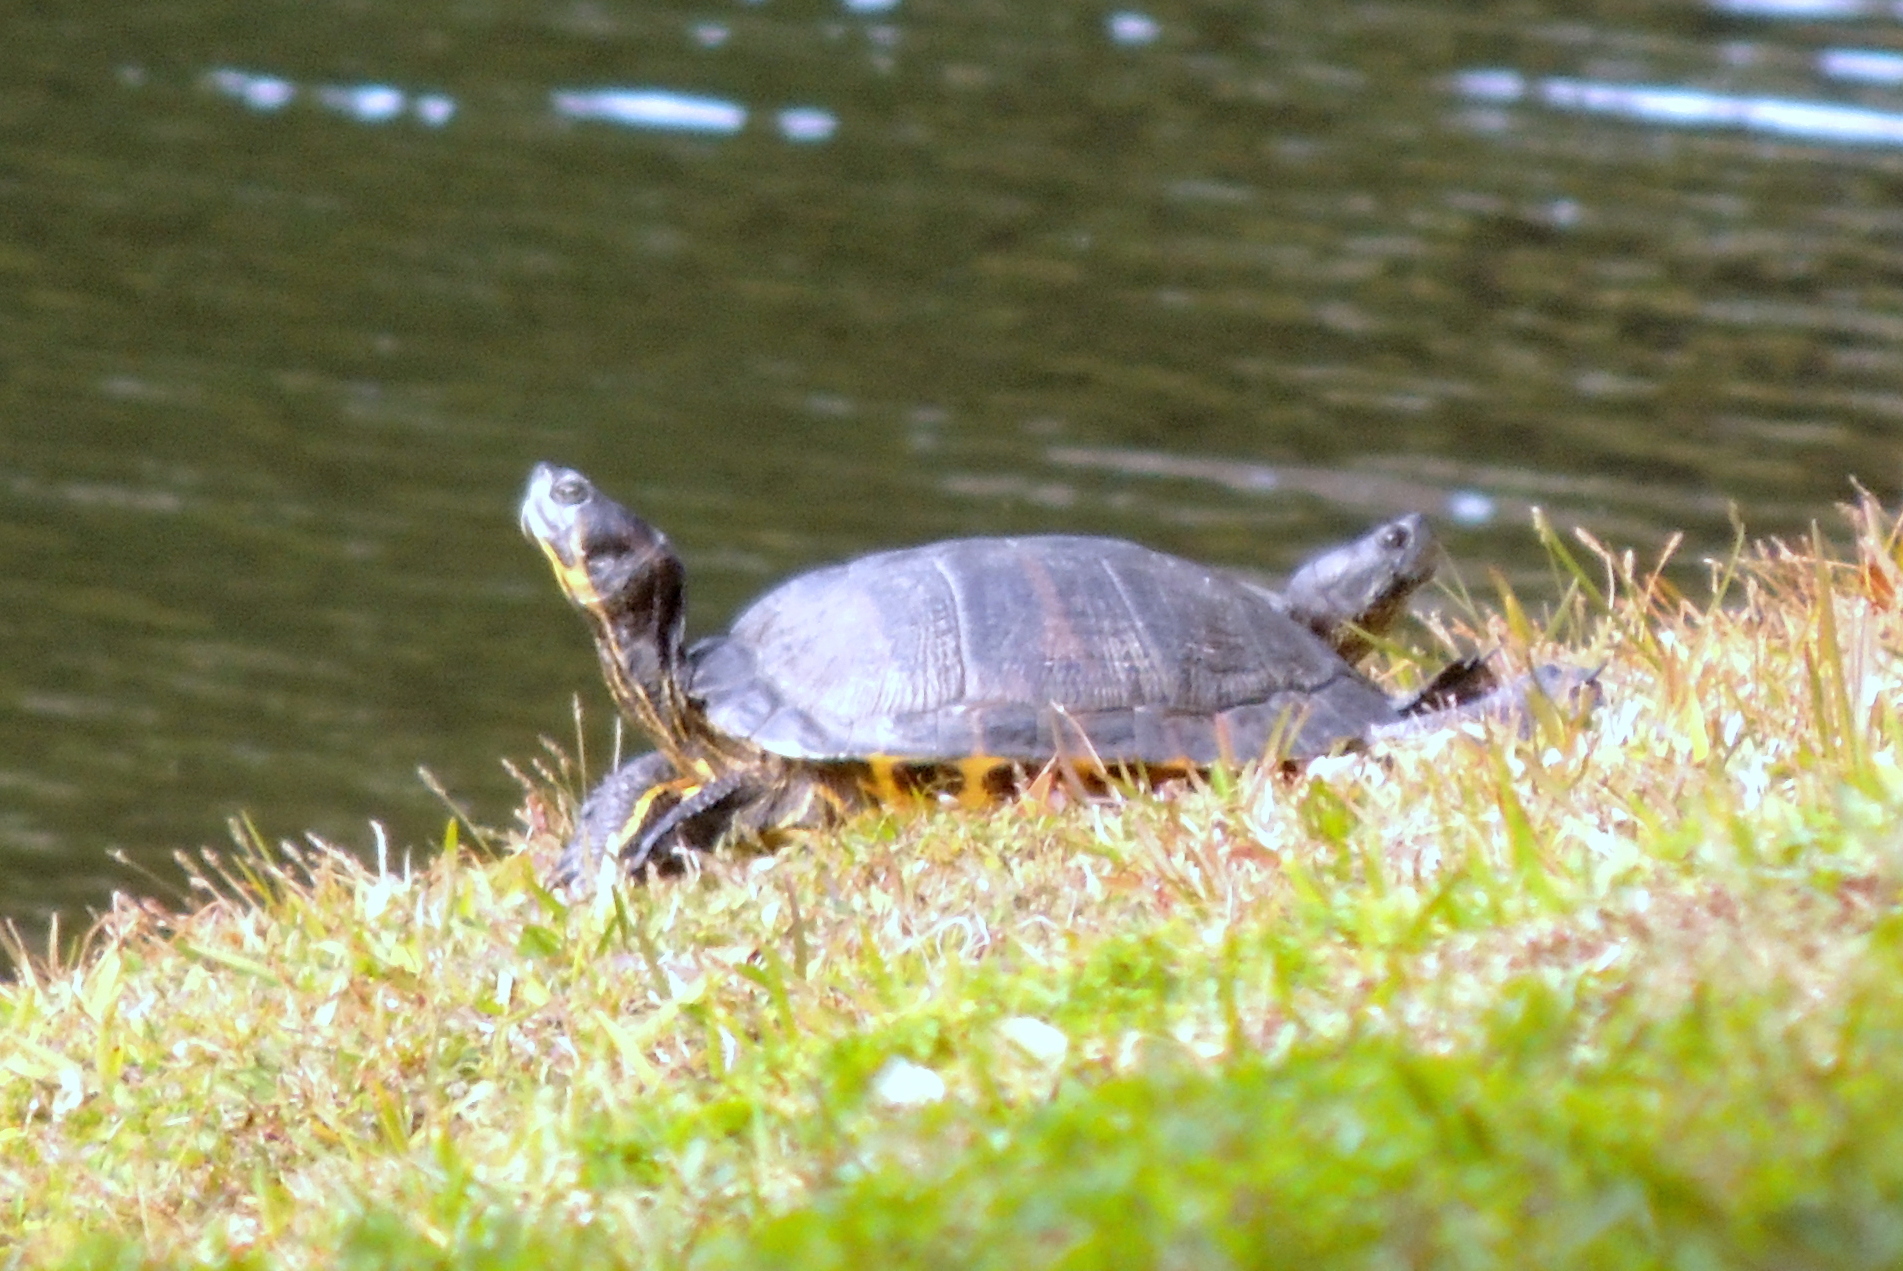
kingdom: Animalia
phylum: Chordata
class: Testudines
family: Emydidae
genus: Trachemys
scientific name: Trachemys scripta
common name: Slider
